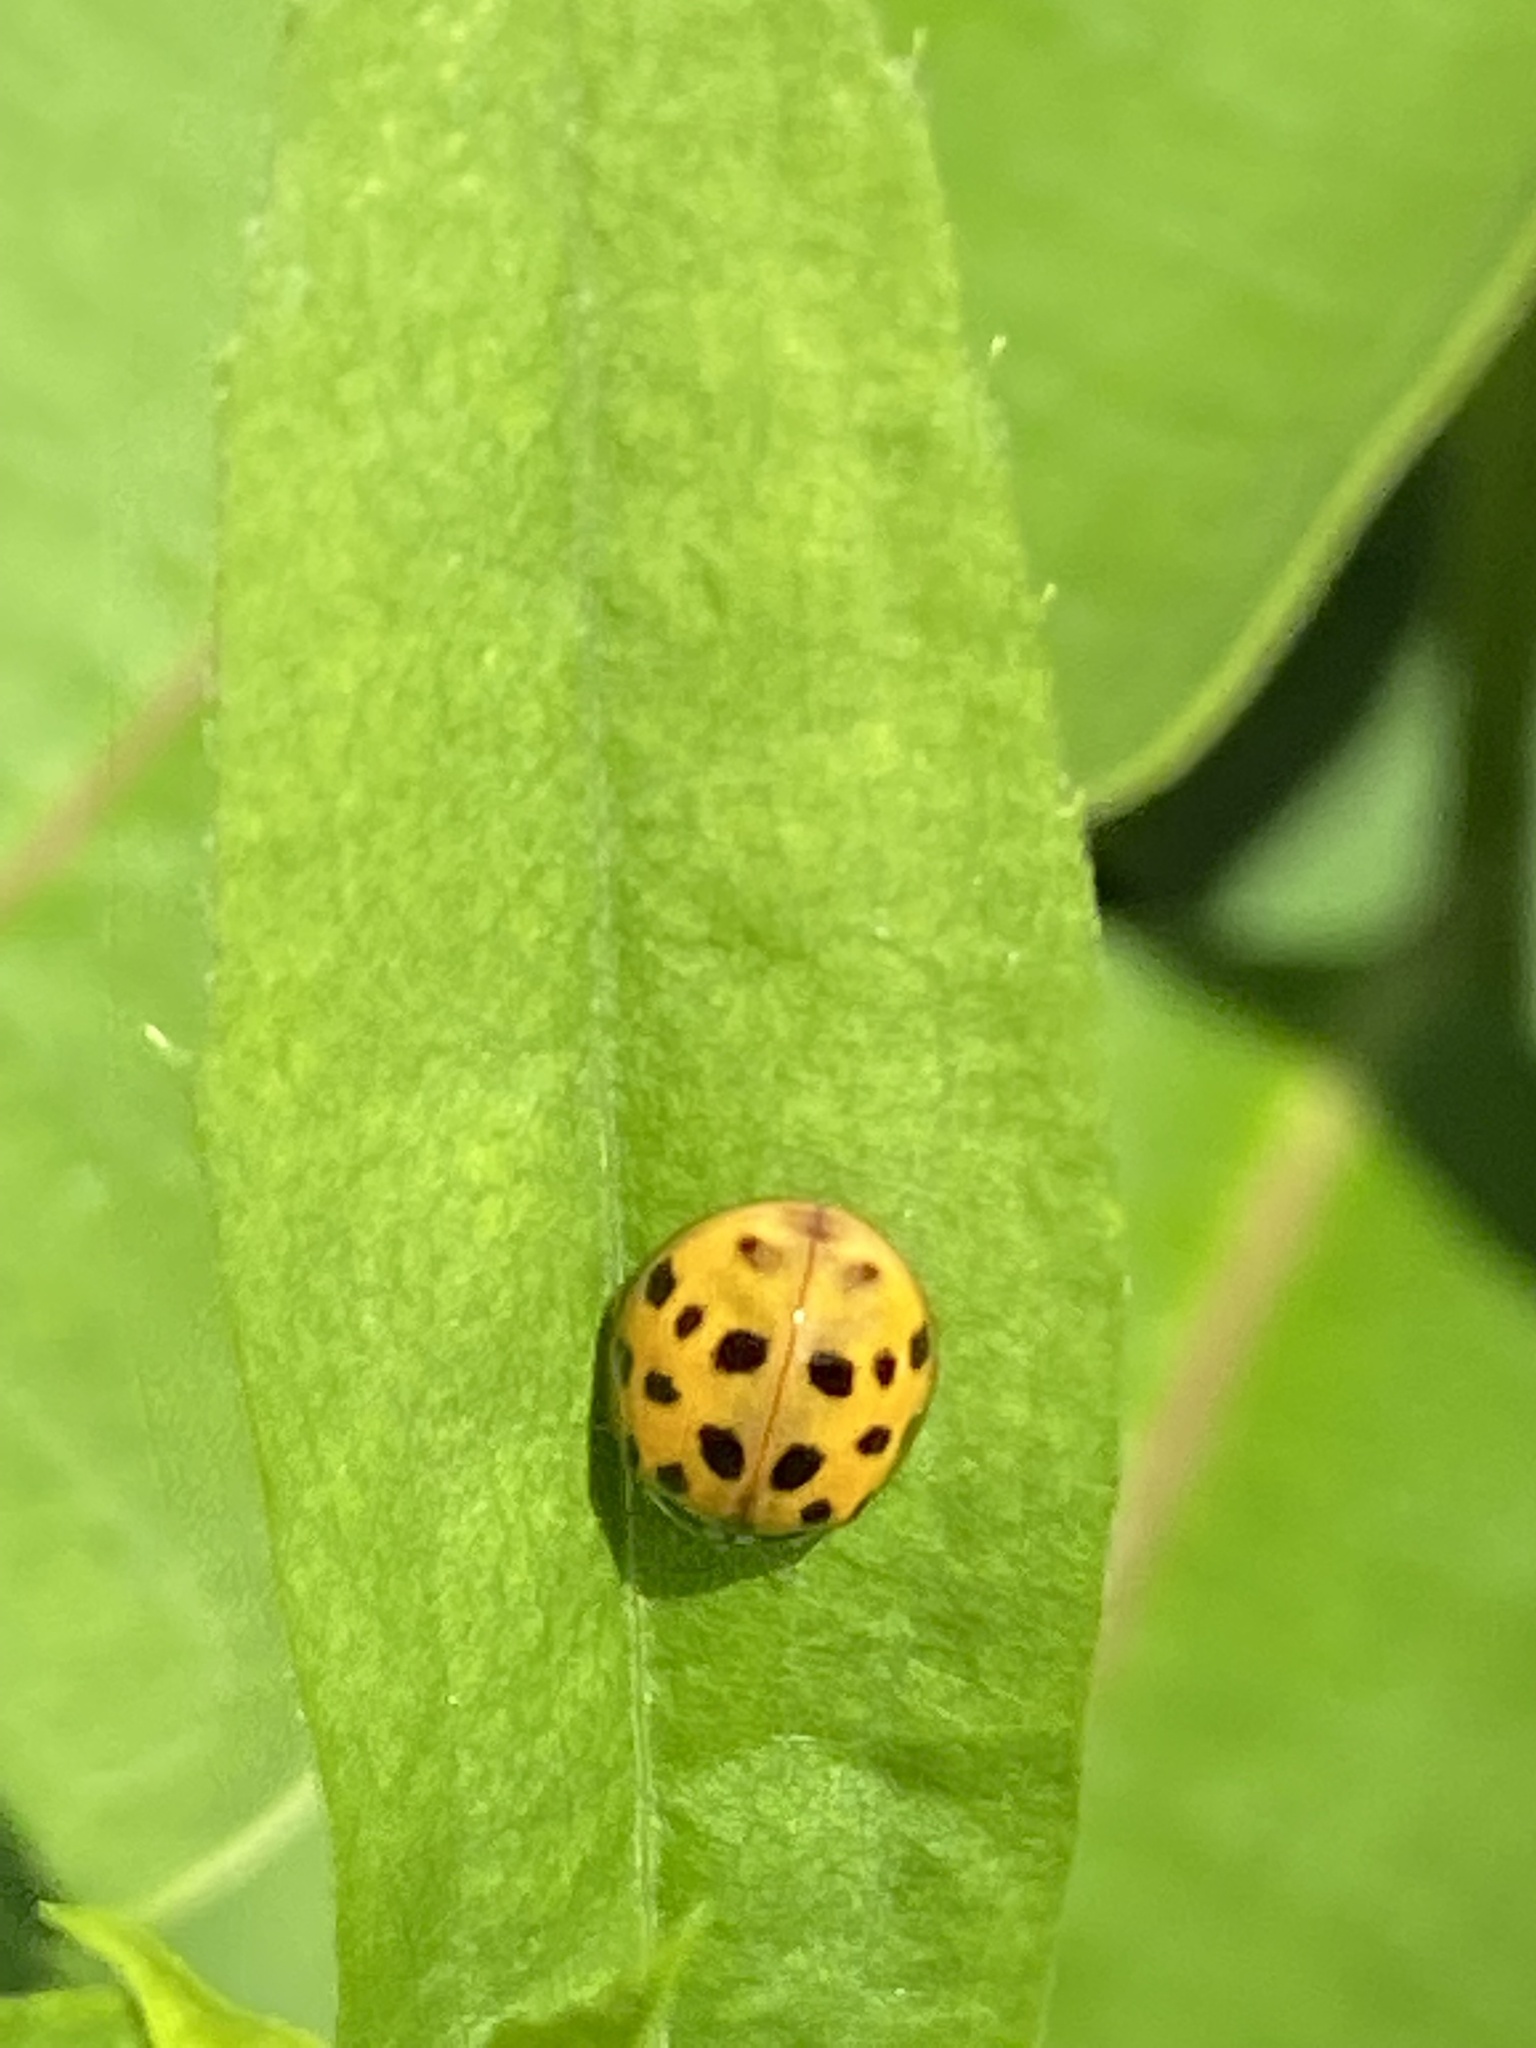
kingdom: Animalia
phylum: Arthropoda
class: Insecta
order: Coleoptera
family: Coccinellidae
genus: Harmonia
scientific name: Harmonia axyridis
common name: Harlequin ladybird
